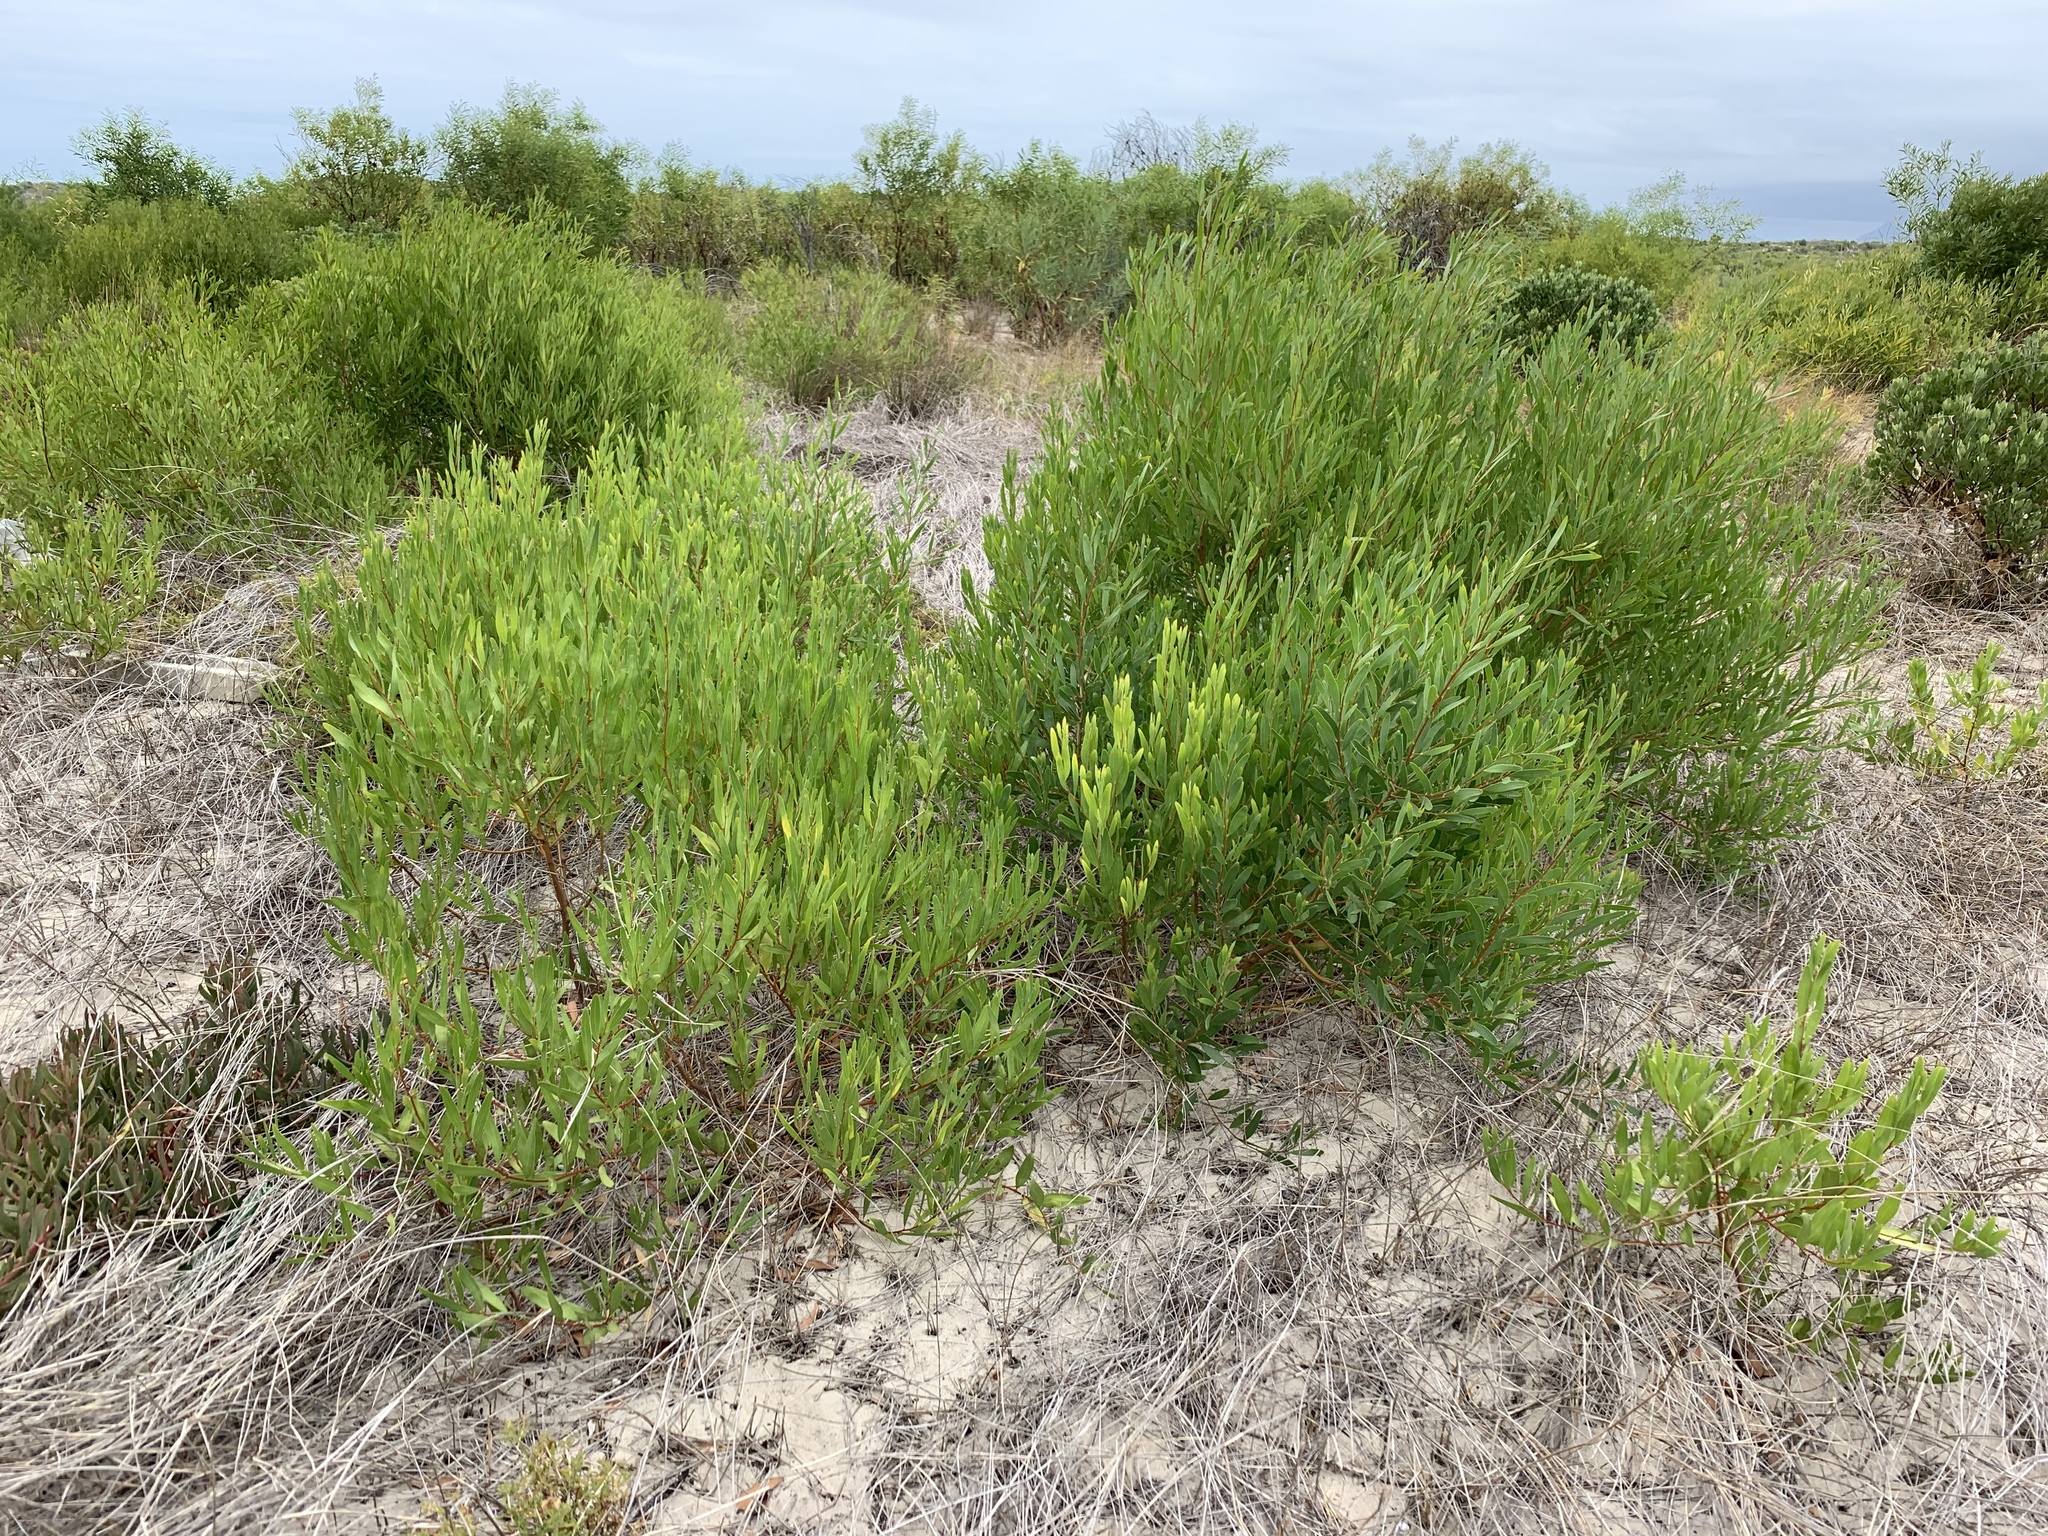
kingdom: Plantae
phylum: Tracheophyta
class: Magnoliopsida
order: Fabales
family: Fabaceae
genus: Acacia
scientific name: Acacia cyclops
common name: Coastal wattle
